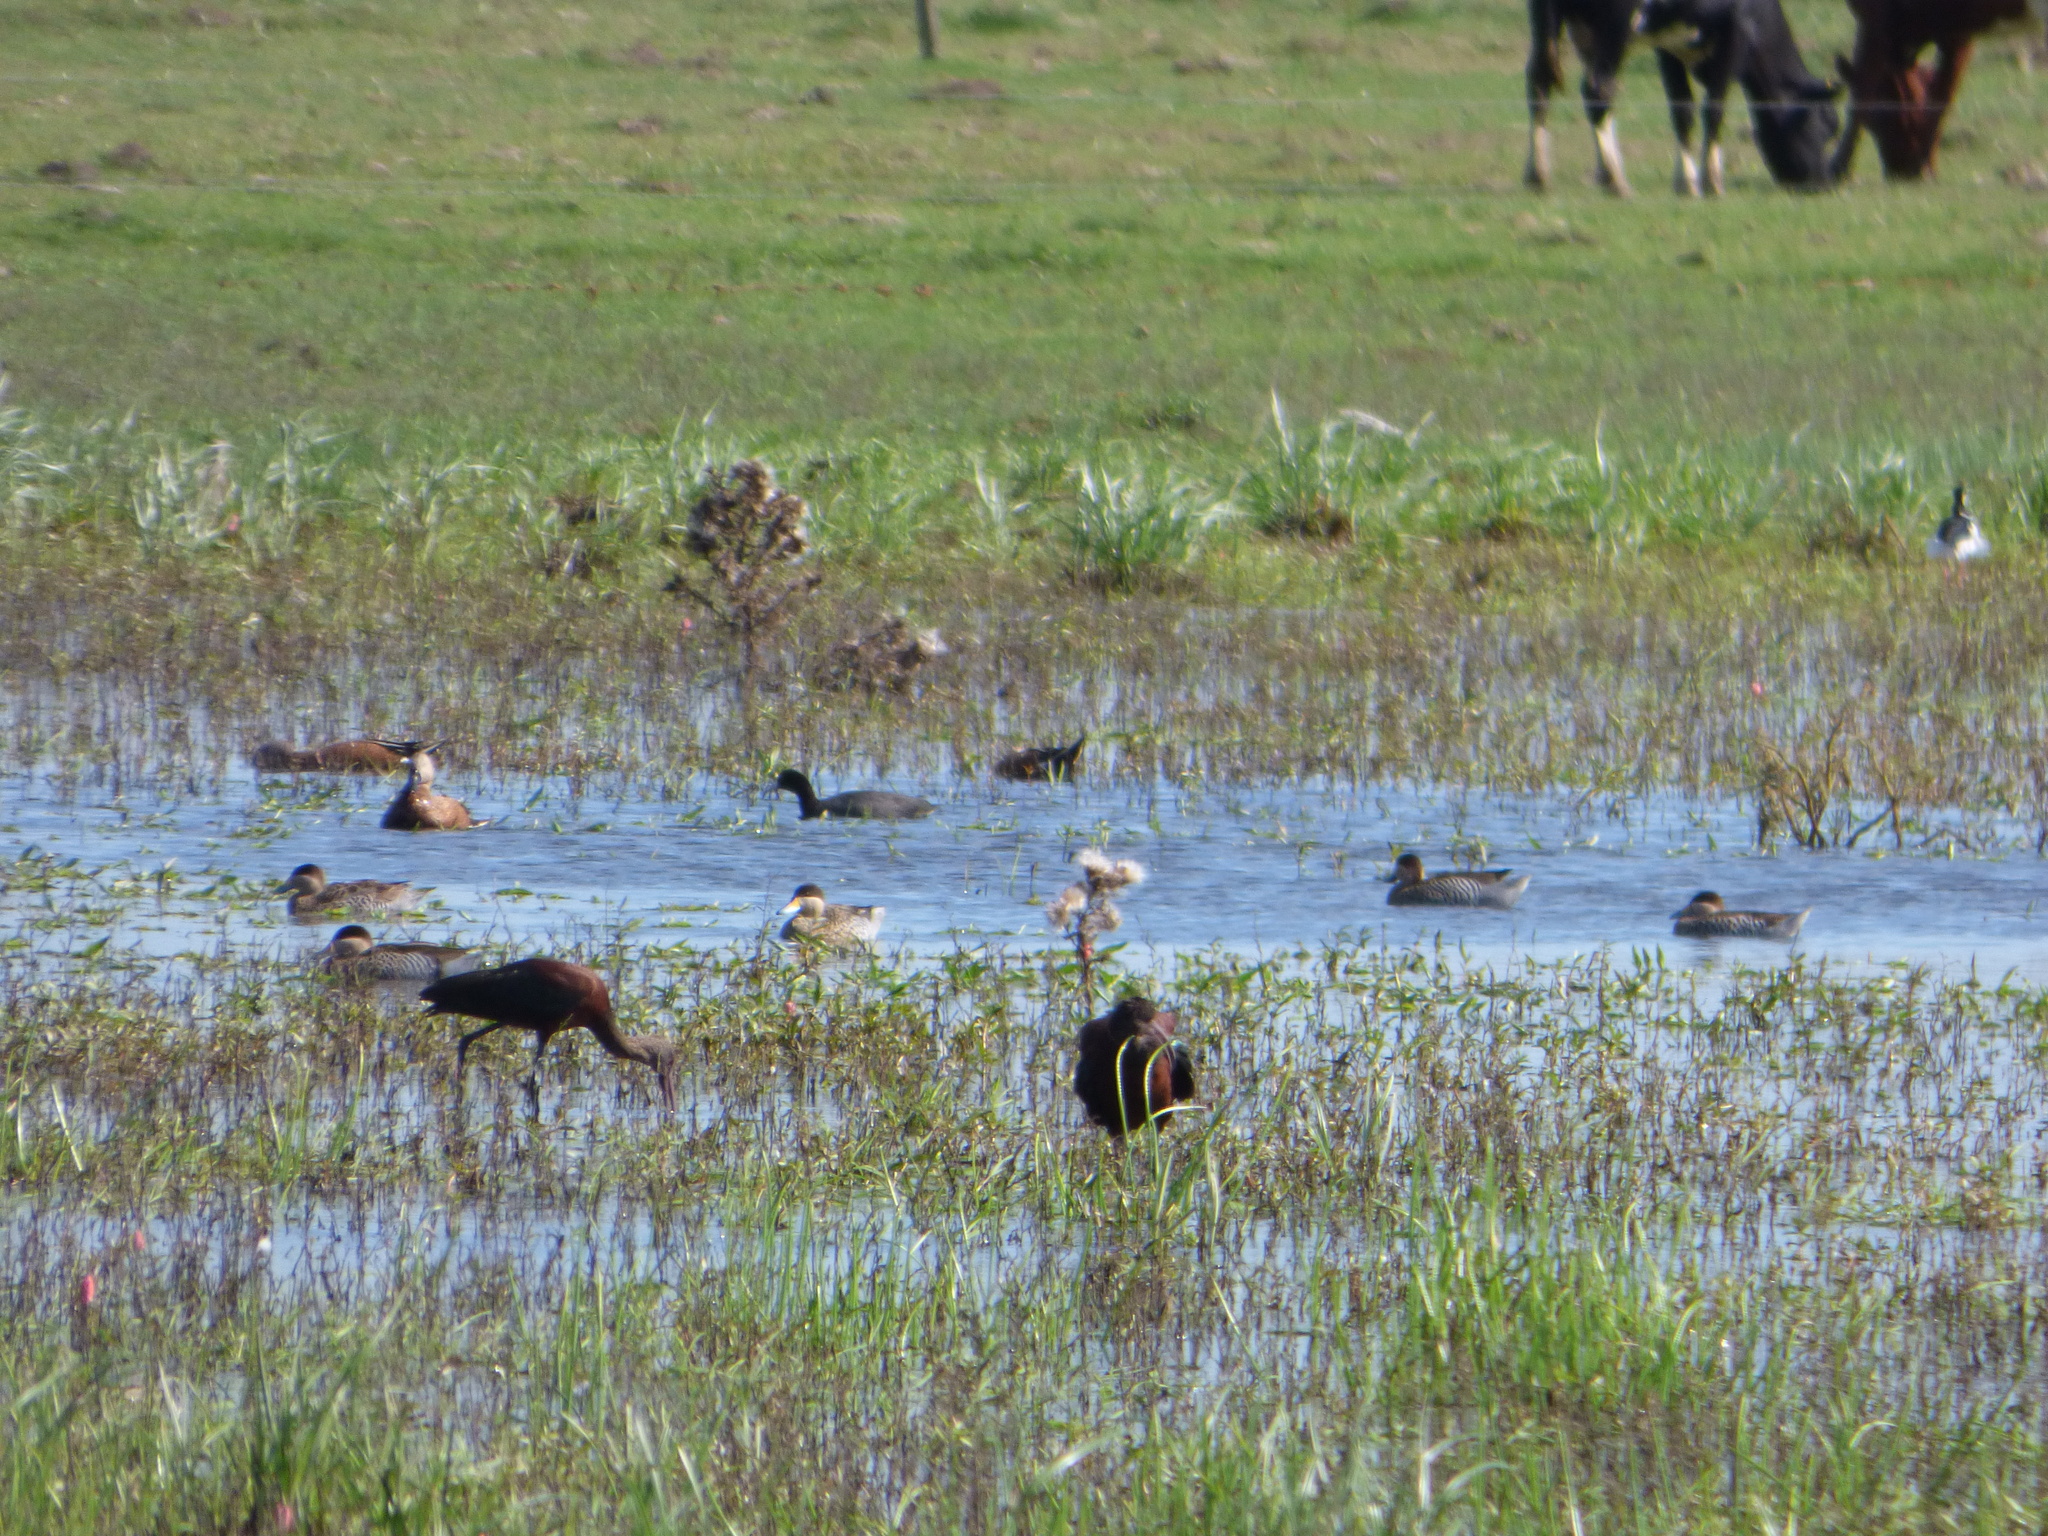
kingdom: Animalia
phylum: Chordata
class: Aves
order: Anseriformes
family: Anatidae
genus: Spatula
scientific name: Spatula versicolor
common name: Silver teal
